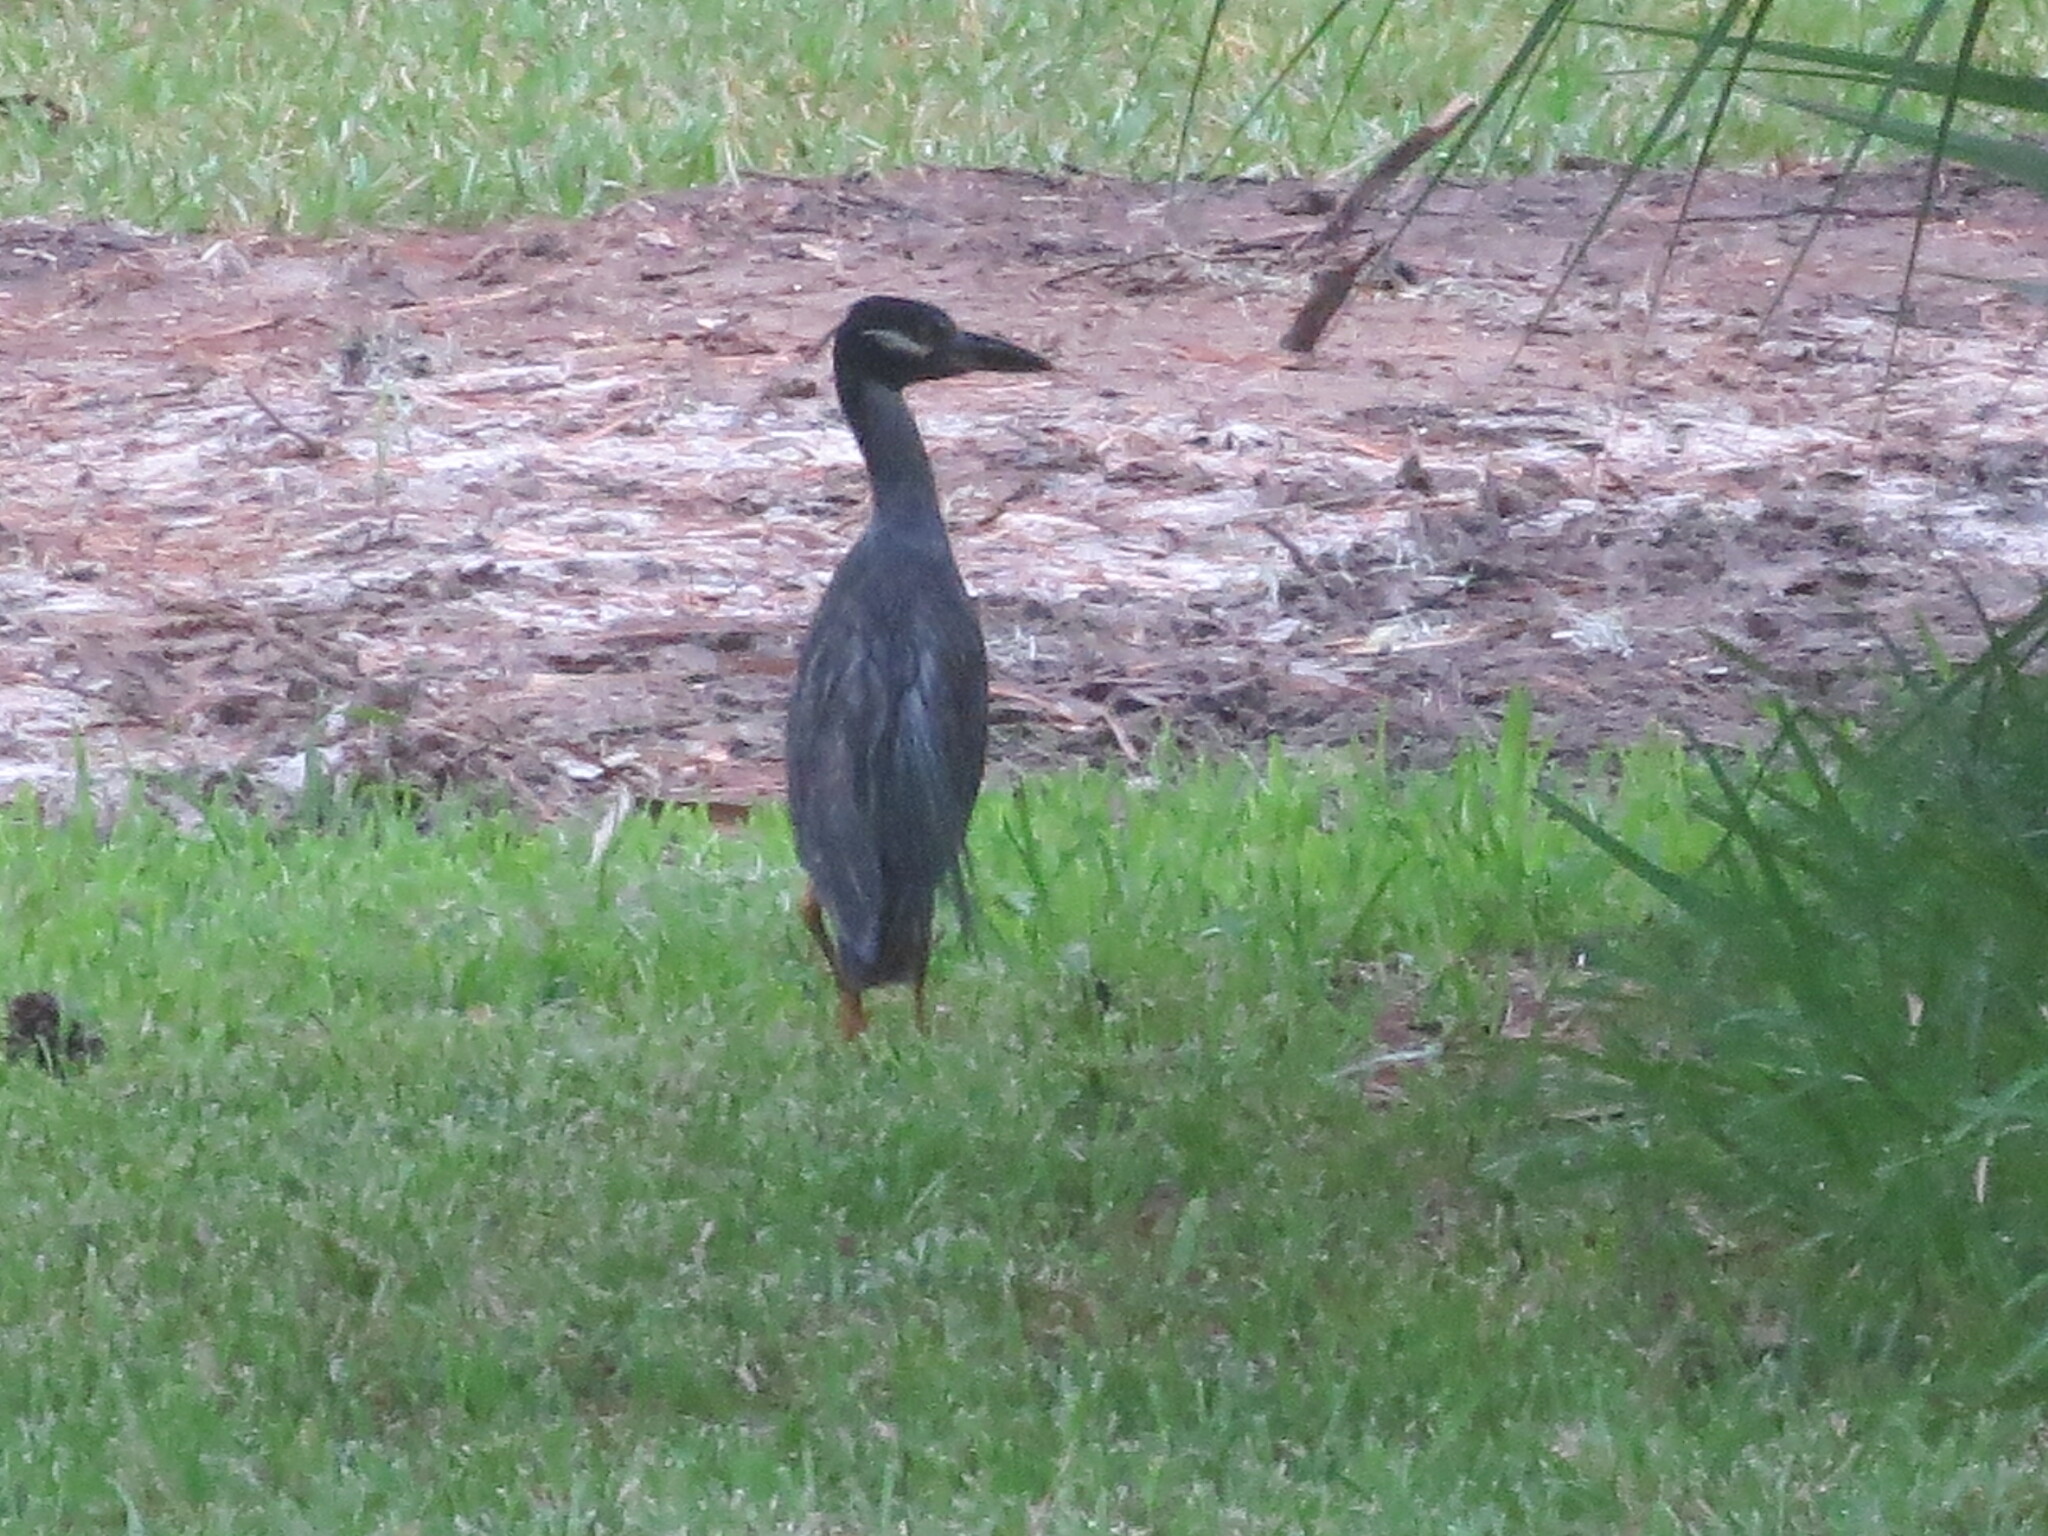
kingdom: Animalia
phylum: Chordata
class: Aves
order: Pelecaniformes
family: Ardeidae
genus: Nyctanassa
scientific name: Nyctanassa violacea
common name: Yellow-crowned night heron
